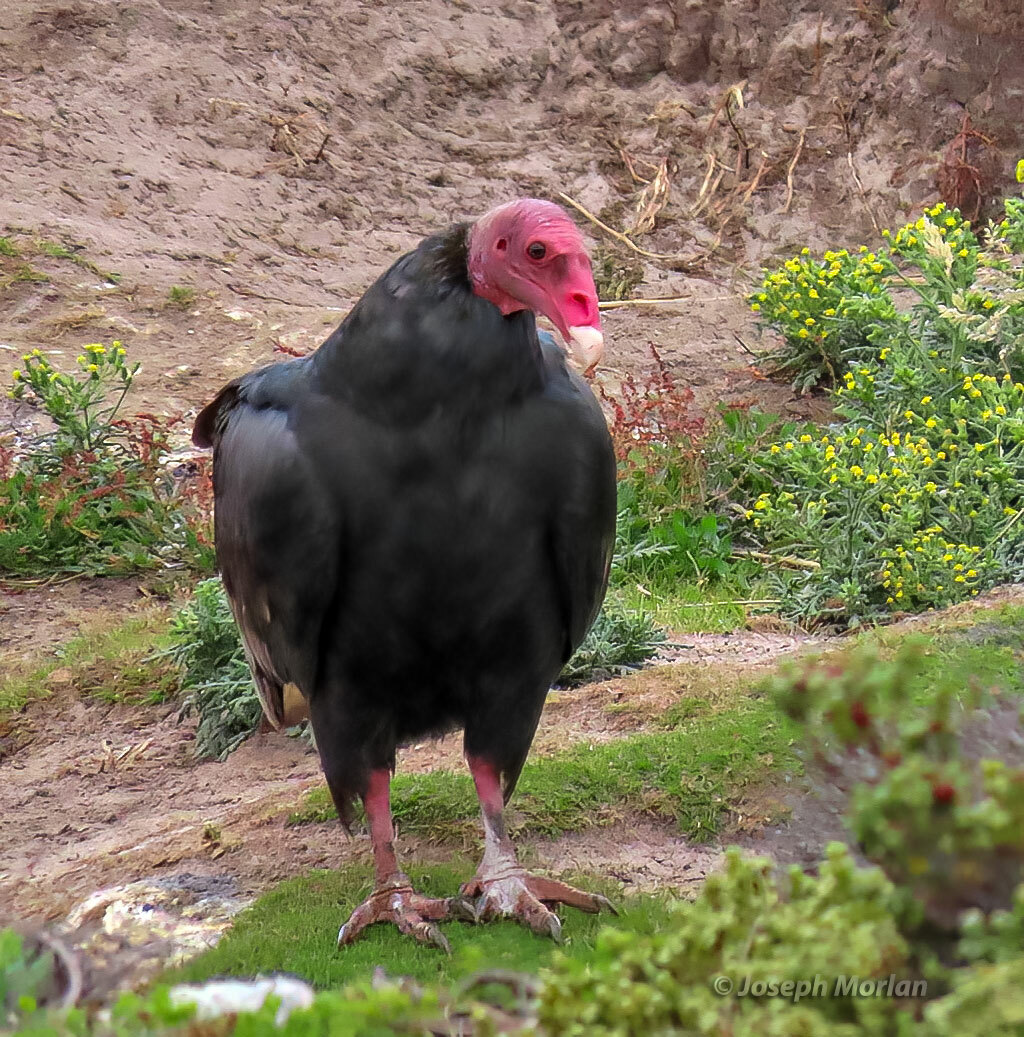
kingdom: Animalia
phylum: Chordata
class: Aves
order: Accipitriformes
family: Cathartidae
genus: Cathartes
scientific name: Cathartes aura
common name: Turkey vulture
